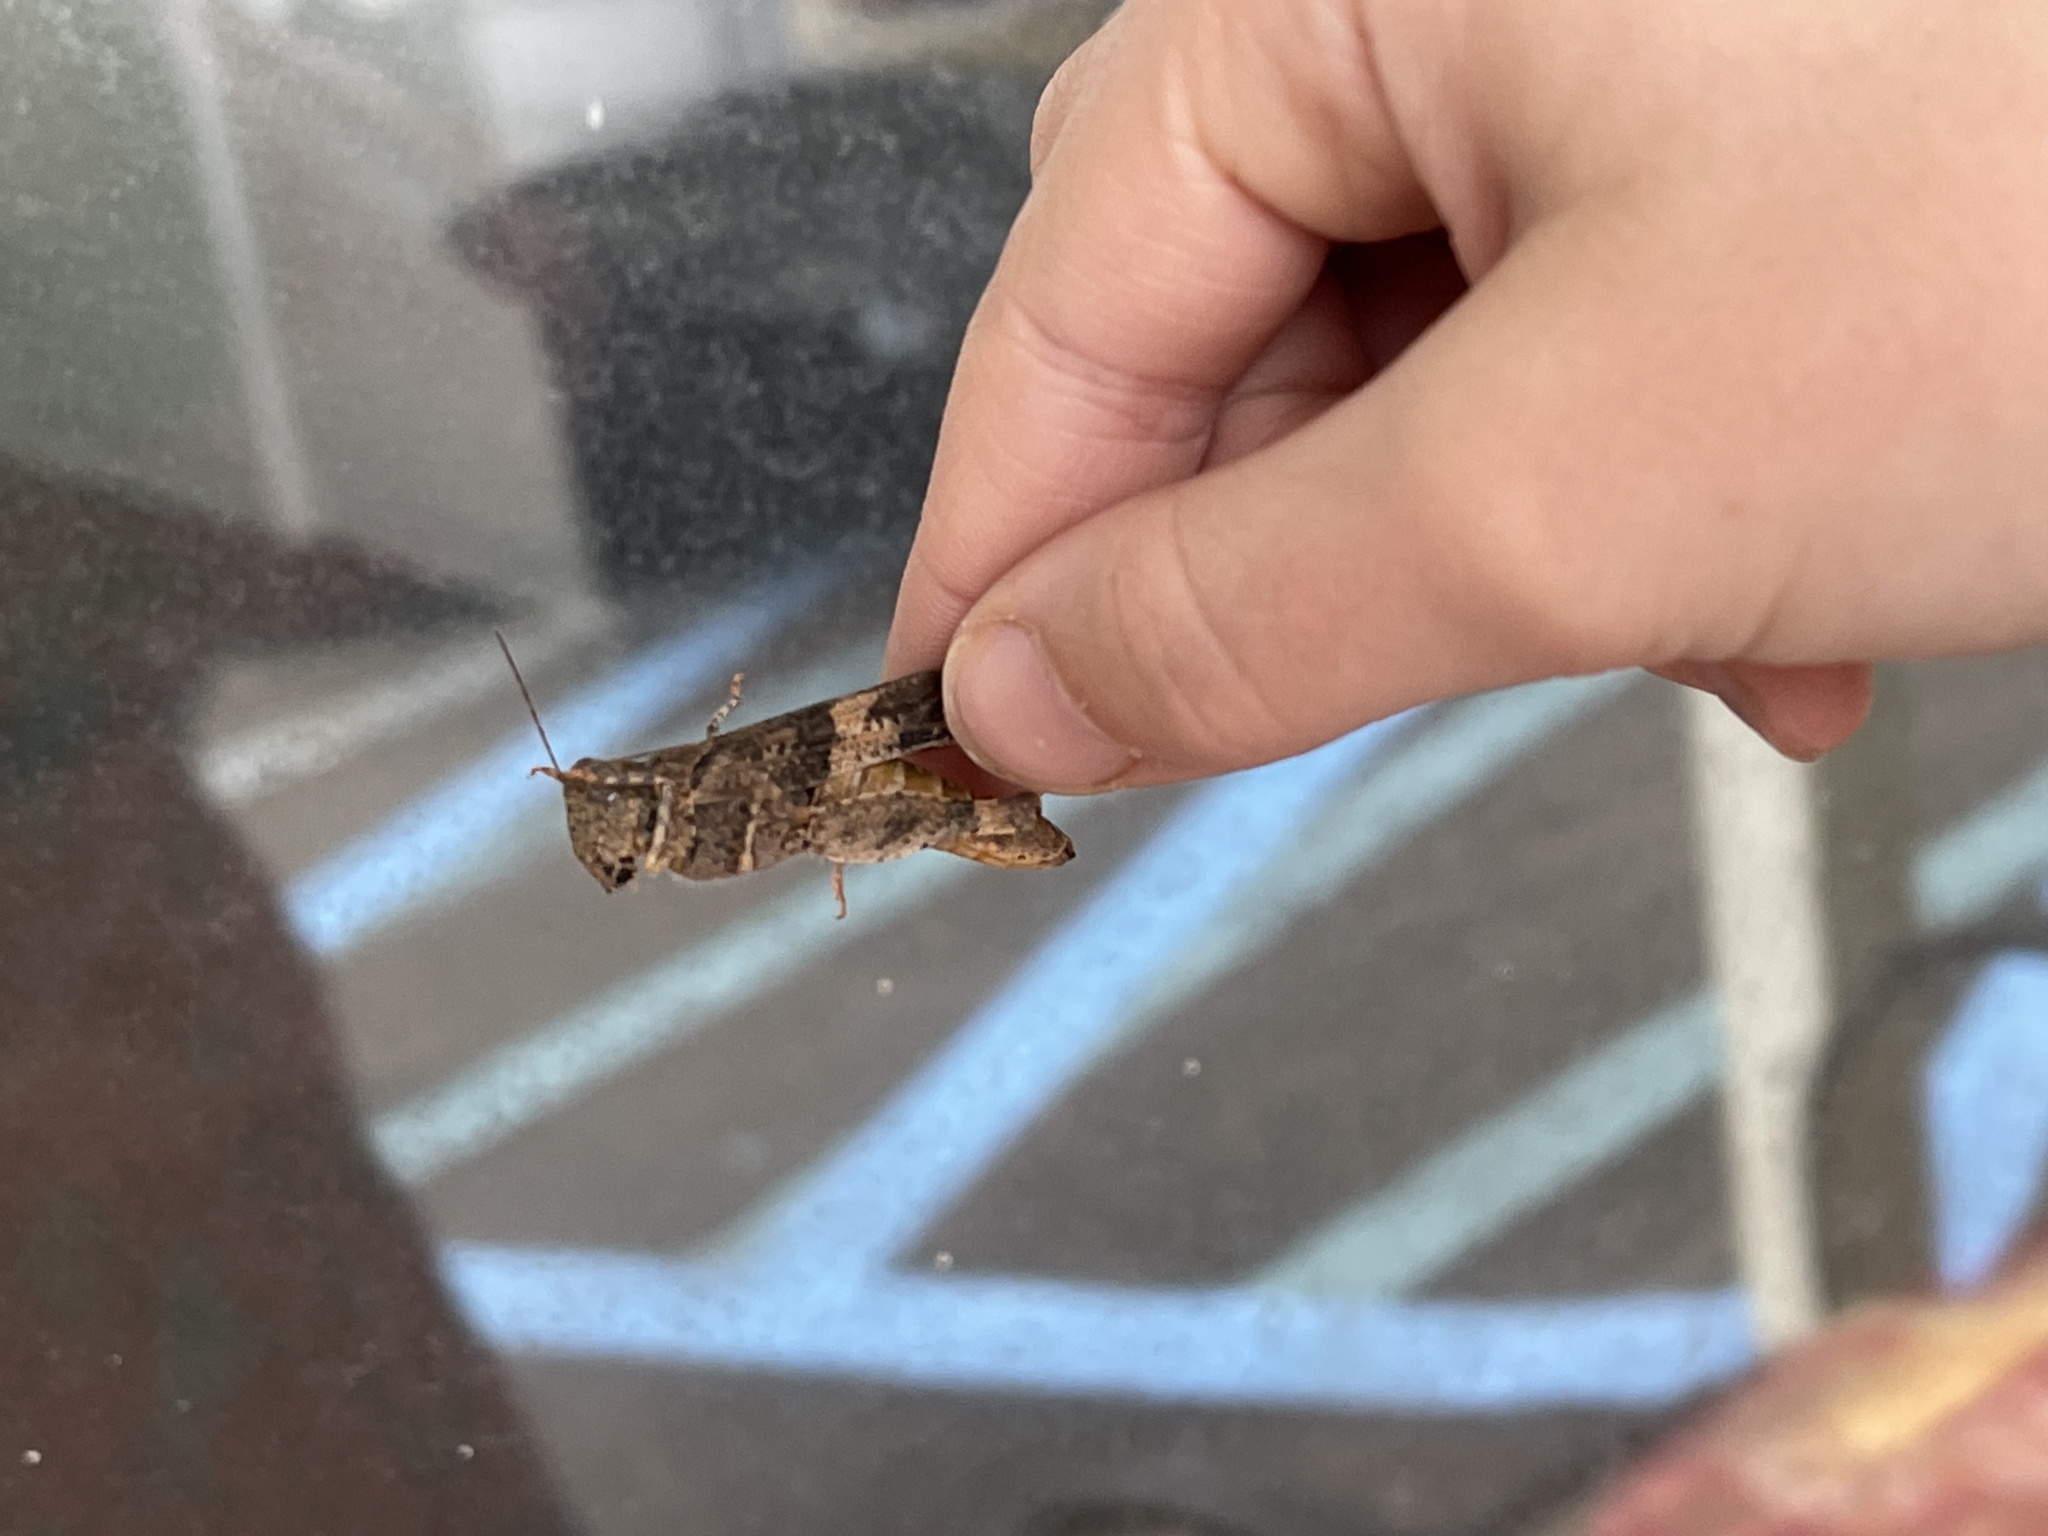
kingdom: Animalia
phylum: Arthropoda
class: Insecta
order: Orthoptera
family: Acrididae
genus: Trimerotropis
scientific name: Trimerotropis pallidipennis
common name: Pallid-winged grasshopper
